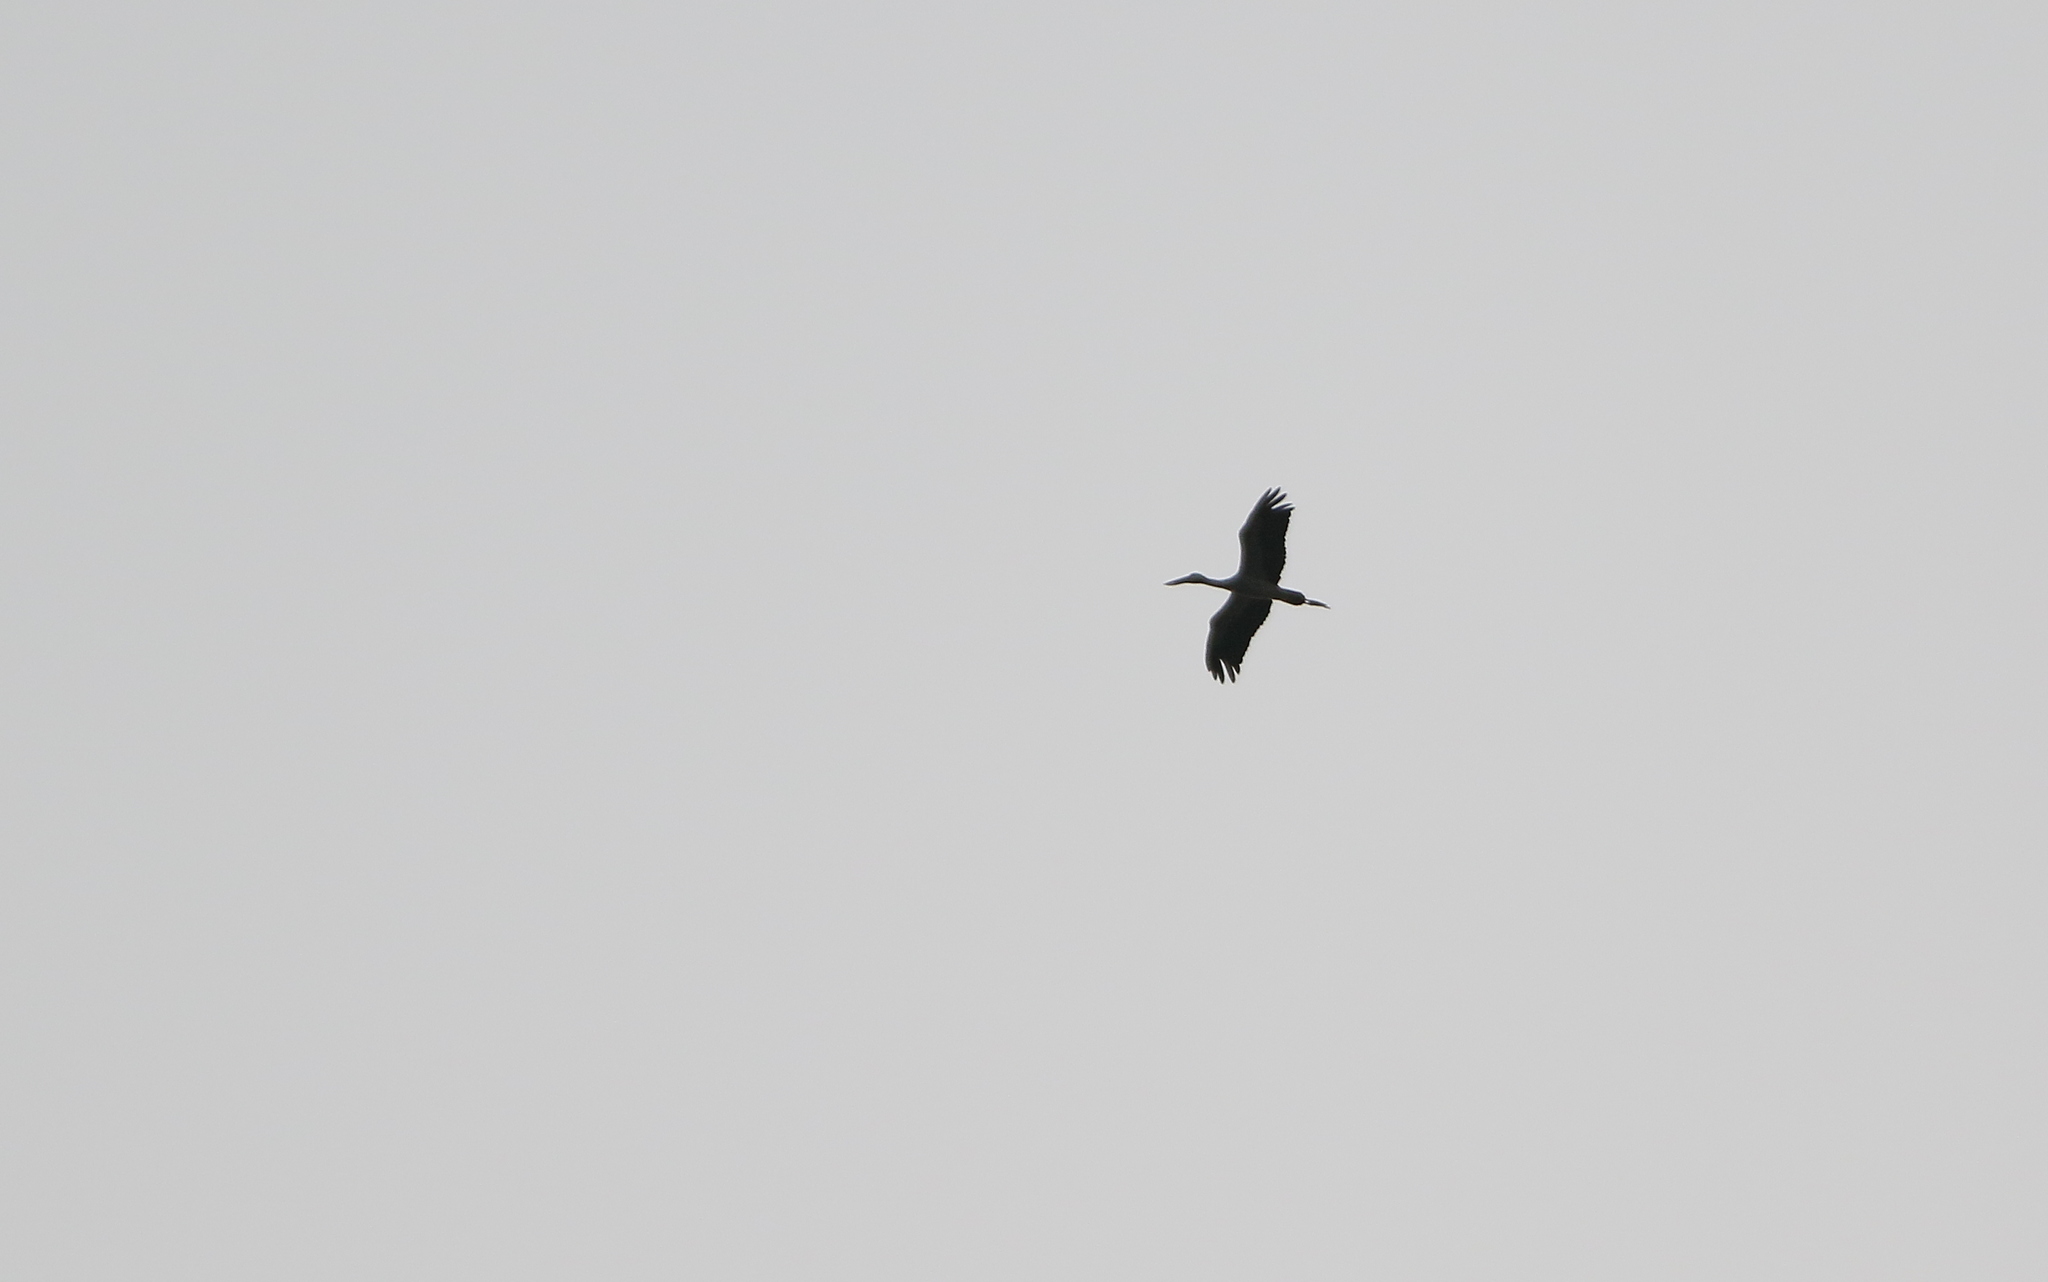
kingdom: Animalia
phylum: Chordata
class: Aves
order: Ciconiiformes
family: Ciconiidae
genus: Anastomus
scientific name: Anastomus oscitans
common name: Asian openbill
